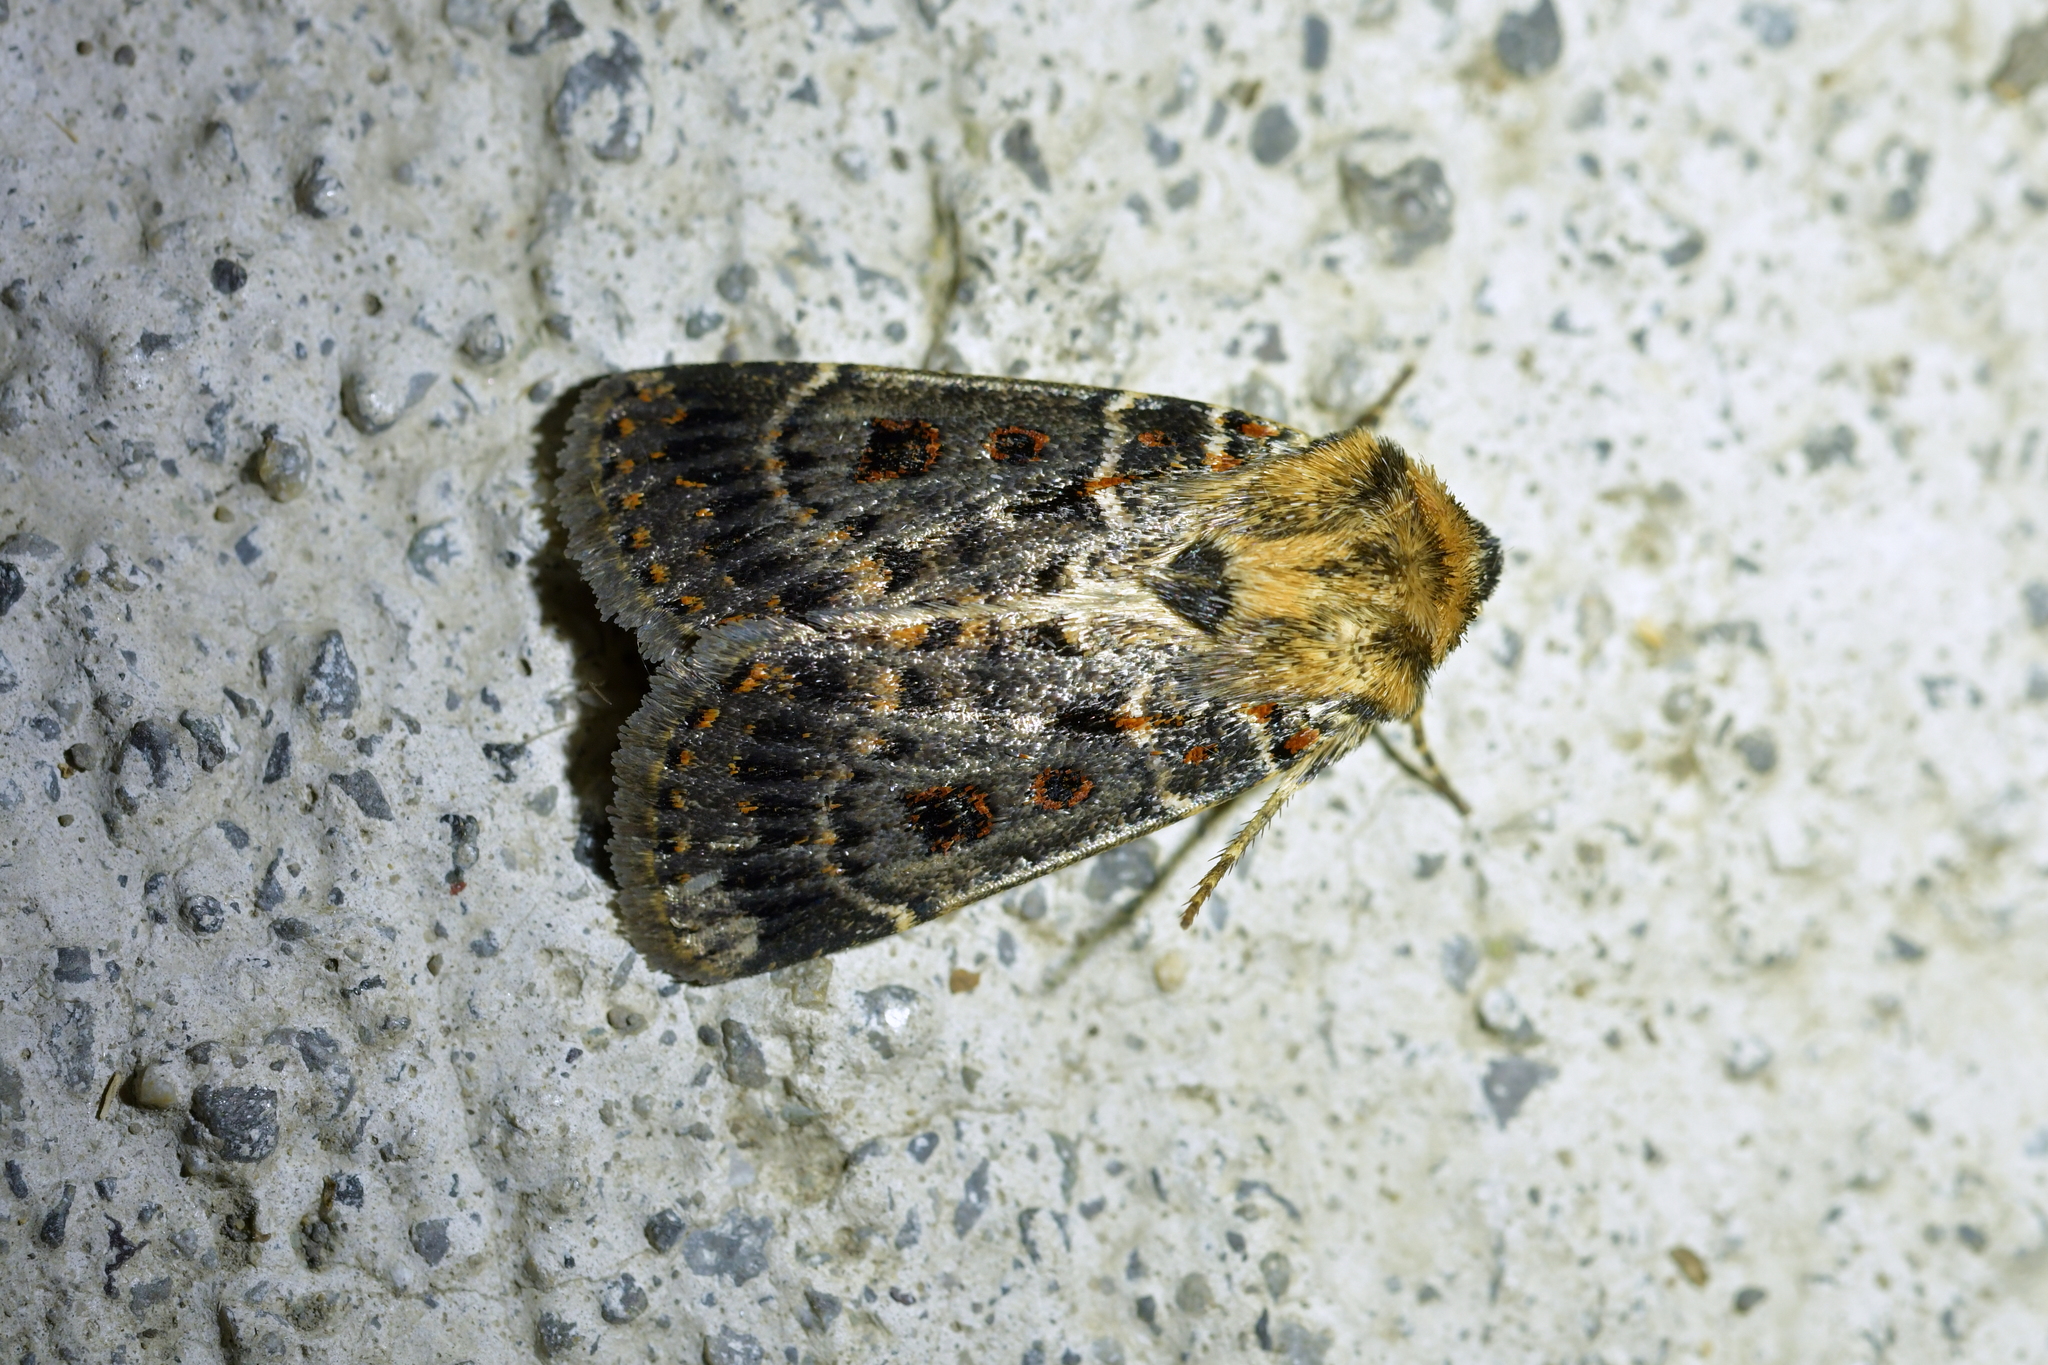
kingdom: Animalia
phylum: Arthropoda
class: Insecta
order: Lepidoptera
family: Noctuidae
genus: Proteuxoa
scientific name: Proteuxoa sanguinipuncta
